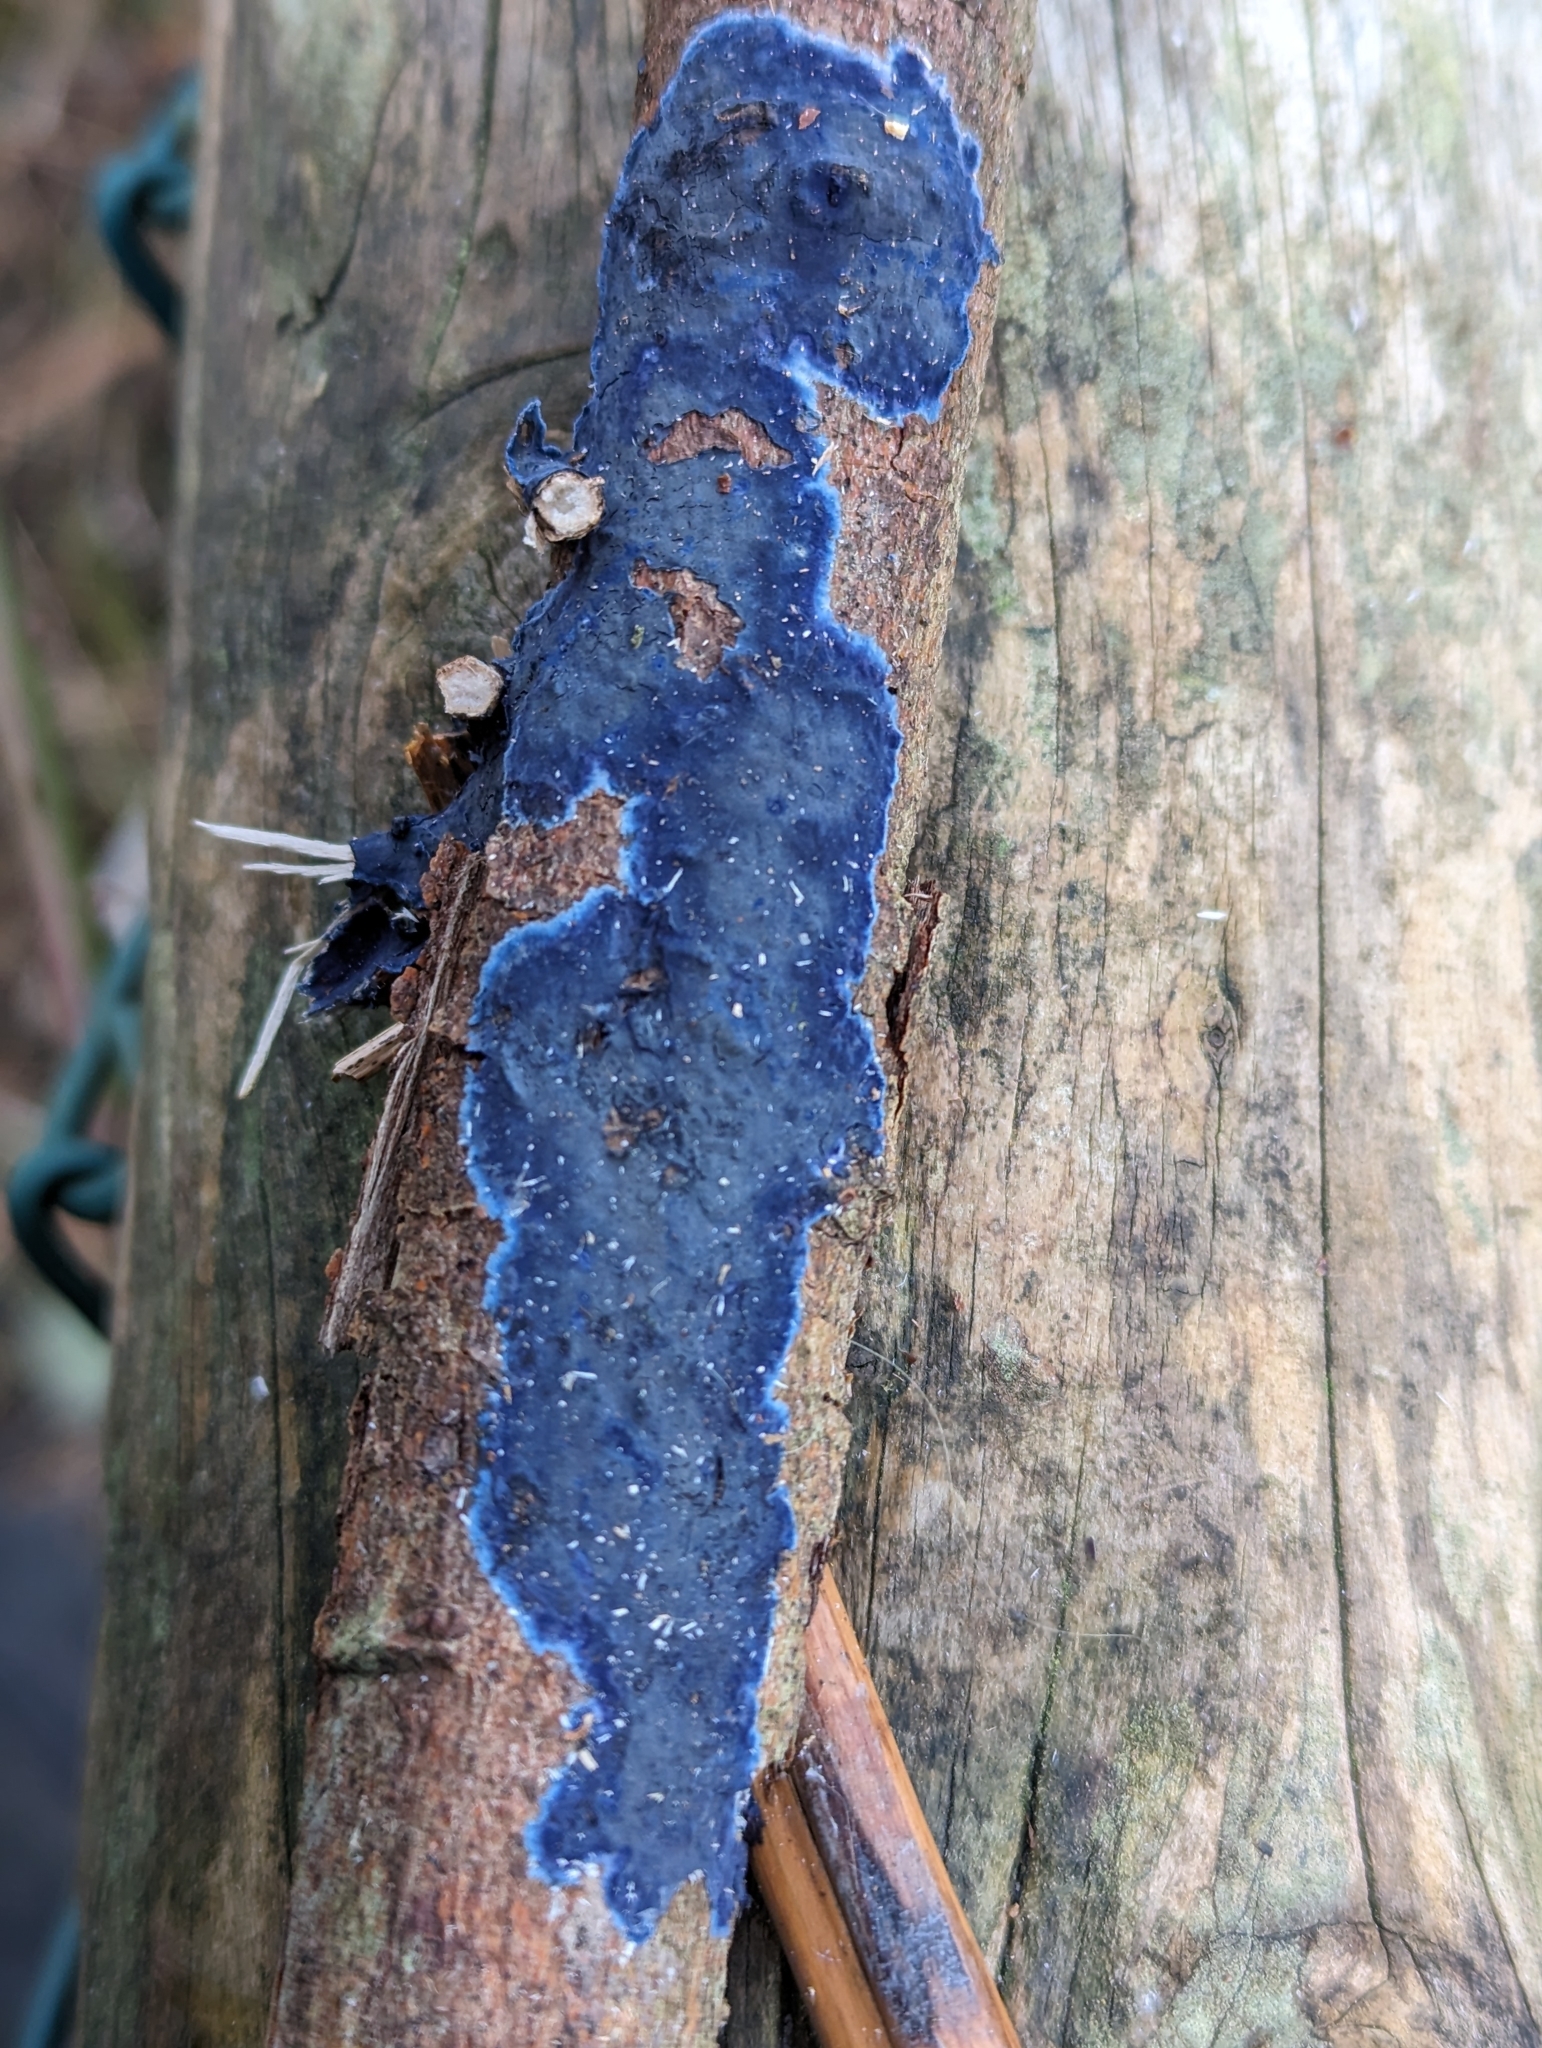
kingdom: Fungi
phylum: Basidiomycota
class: Agaricomycetes
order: Polyporales
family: Phanerochaetaceae
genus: Terana
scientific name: Terana coerulea
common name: Cobalt crust
